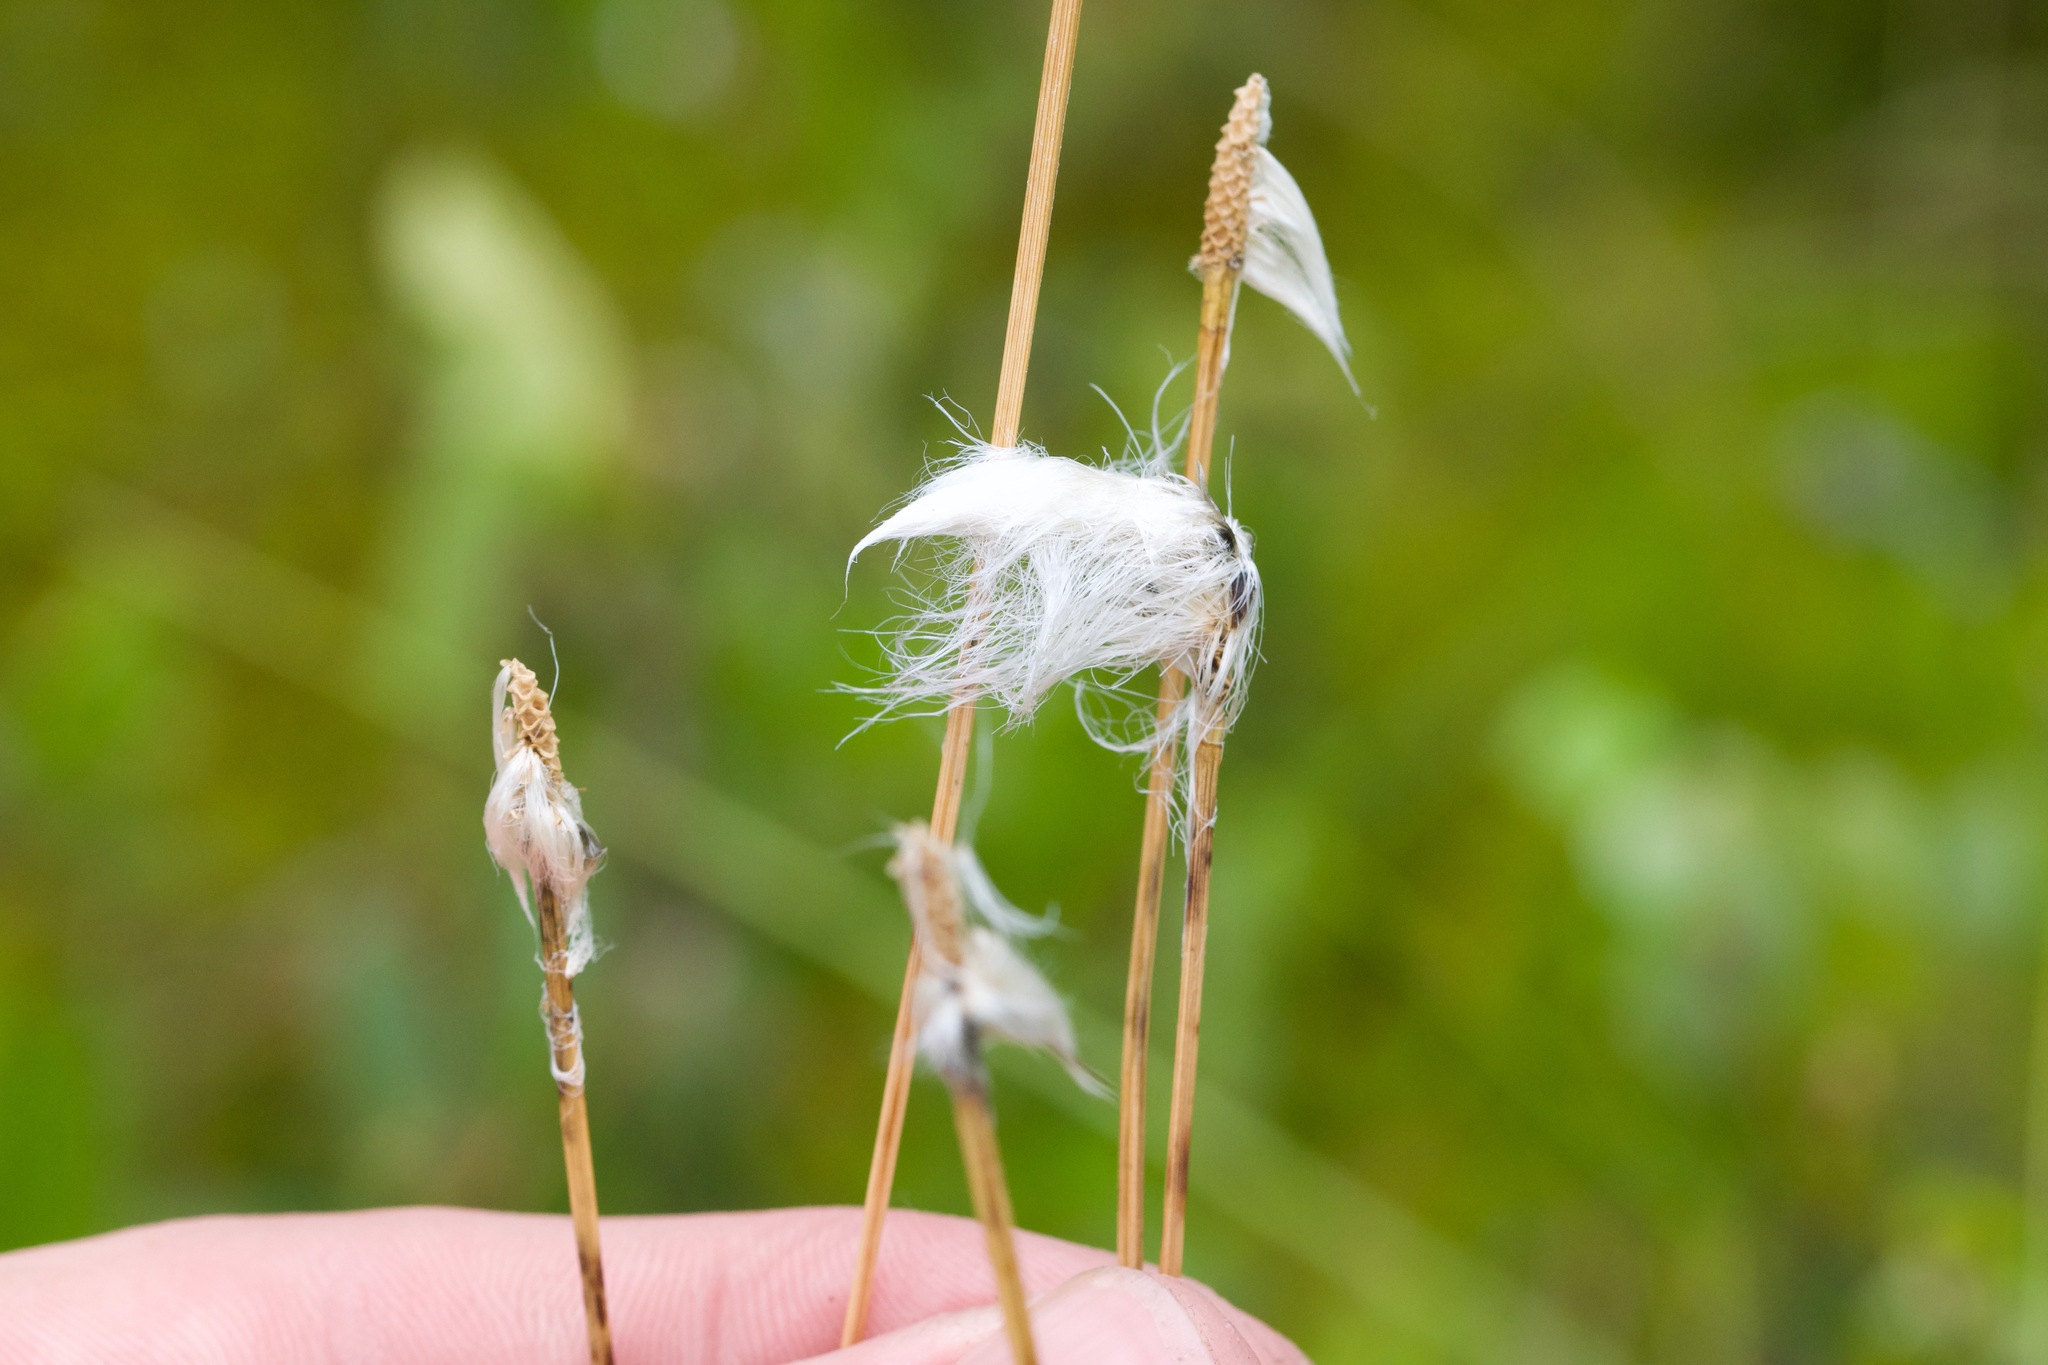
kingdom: Plantae
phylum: Tracheophyta
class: Liliopsida
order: Poales
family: Cyperaceae
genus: Eriophorum
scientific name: Eriophorum vaginatum
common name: Hare's-tail cottongrass
